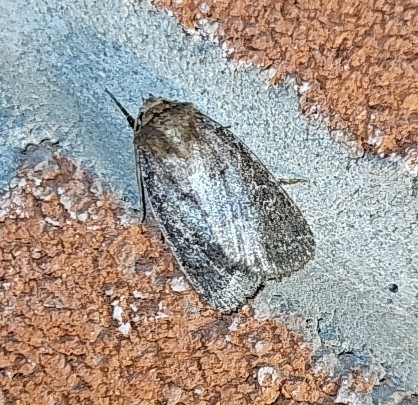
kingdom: Animalia
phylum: Arthropoda
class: Insecta
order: Lepidoptera
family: Noctuidae
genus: Orthodes
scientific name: Orthodes cynica
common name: Cynical quaker
